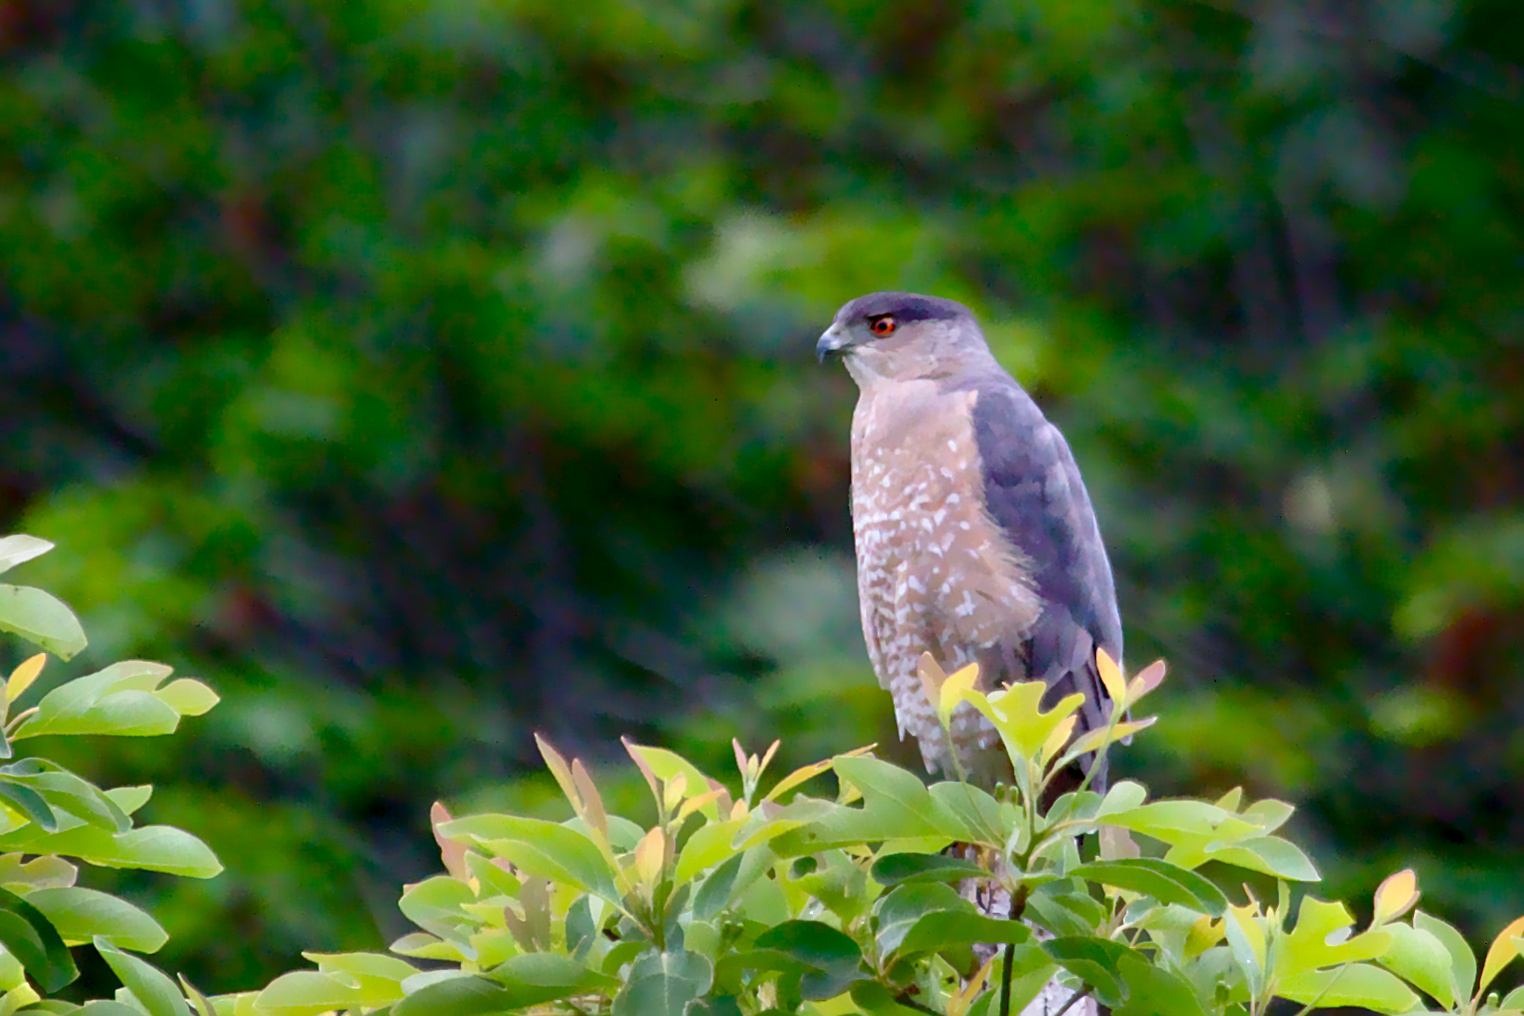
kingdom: Animalia
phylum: Chordata
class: Aves
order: Accipitriformes
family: Accipitridae
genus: Accipiter
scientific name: Accipiter cooperii
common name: Cooper's hawk
